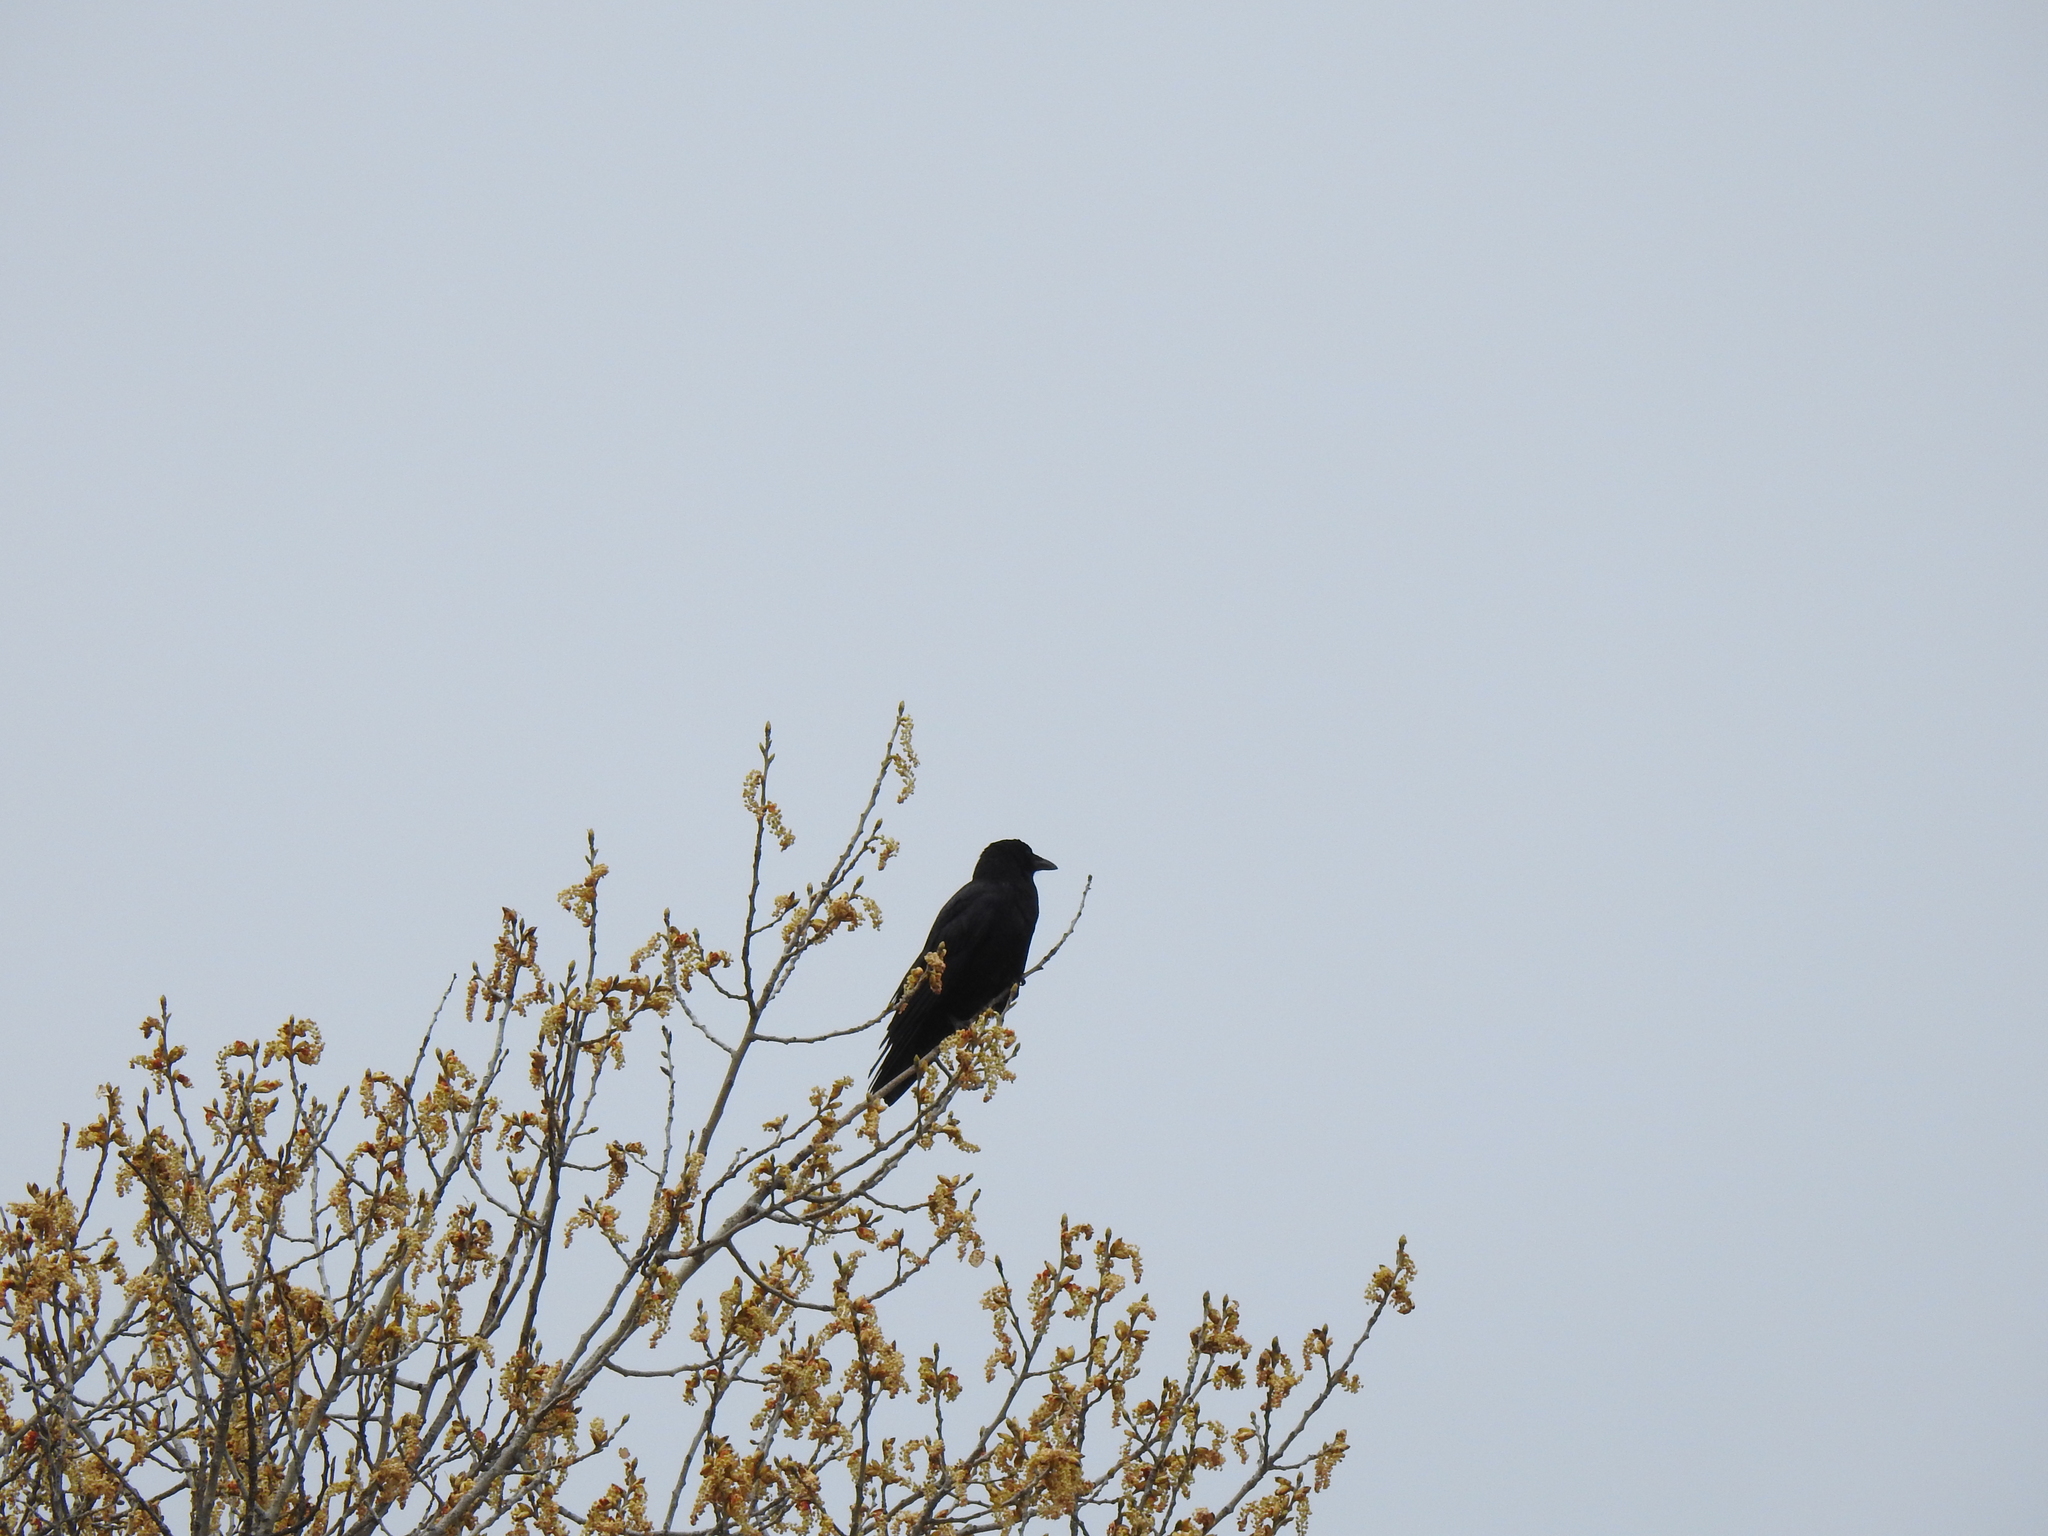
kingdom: Animalia
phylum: Chordata
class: Aves
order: Passeriformes
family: Corvidae
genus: Corvus
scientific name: Corvus brachyrhynchos
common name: American crow
